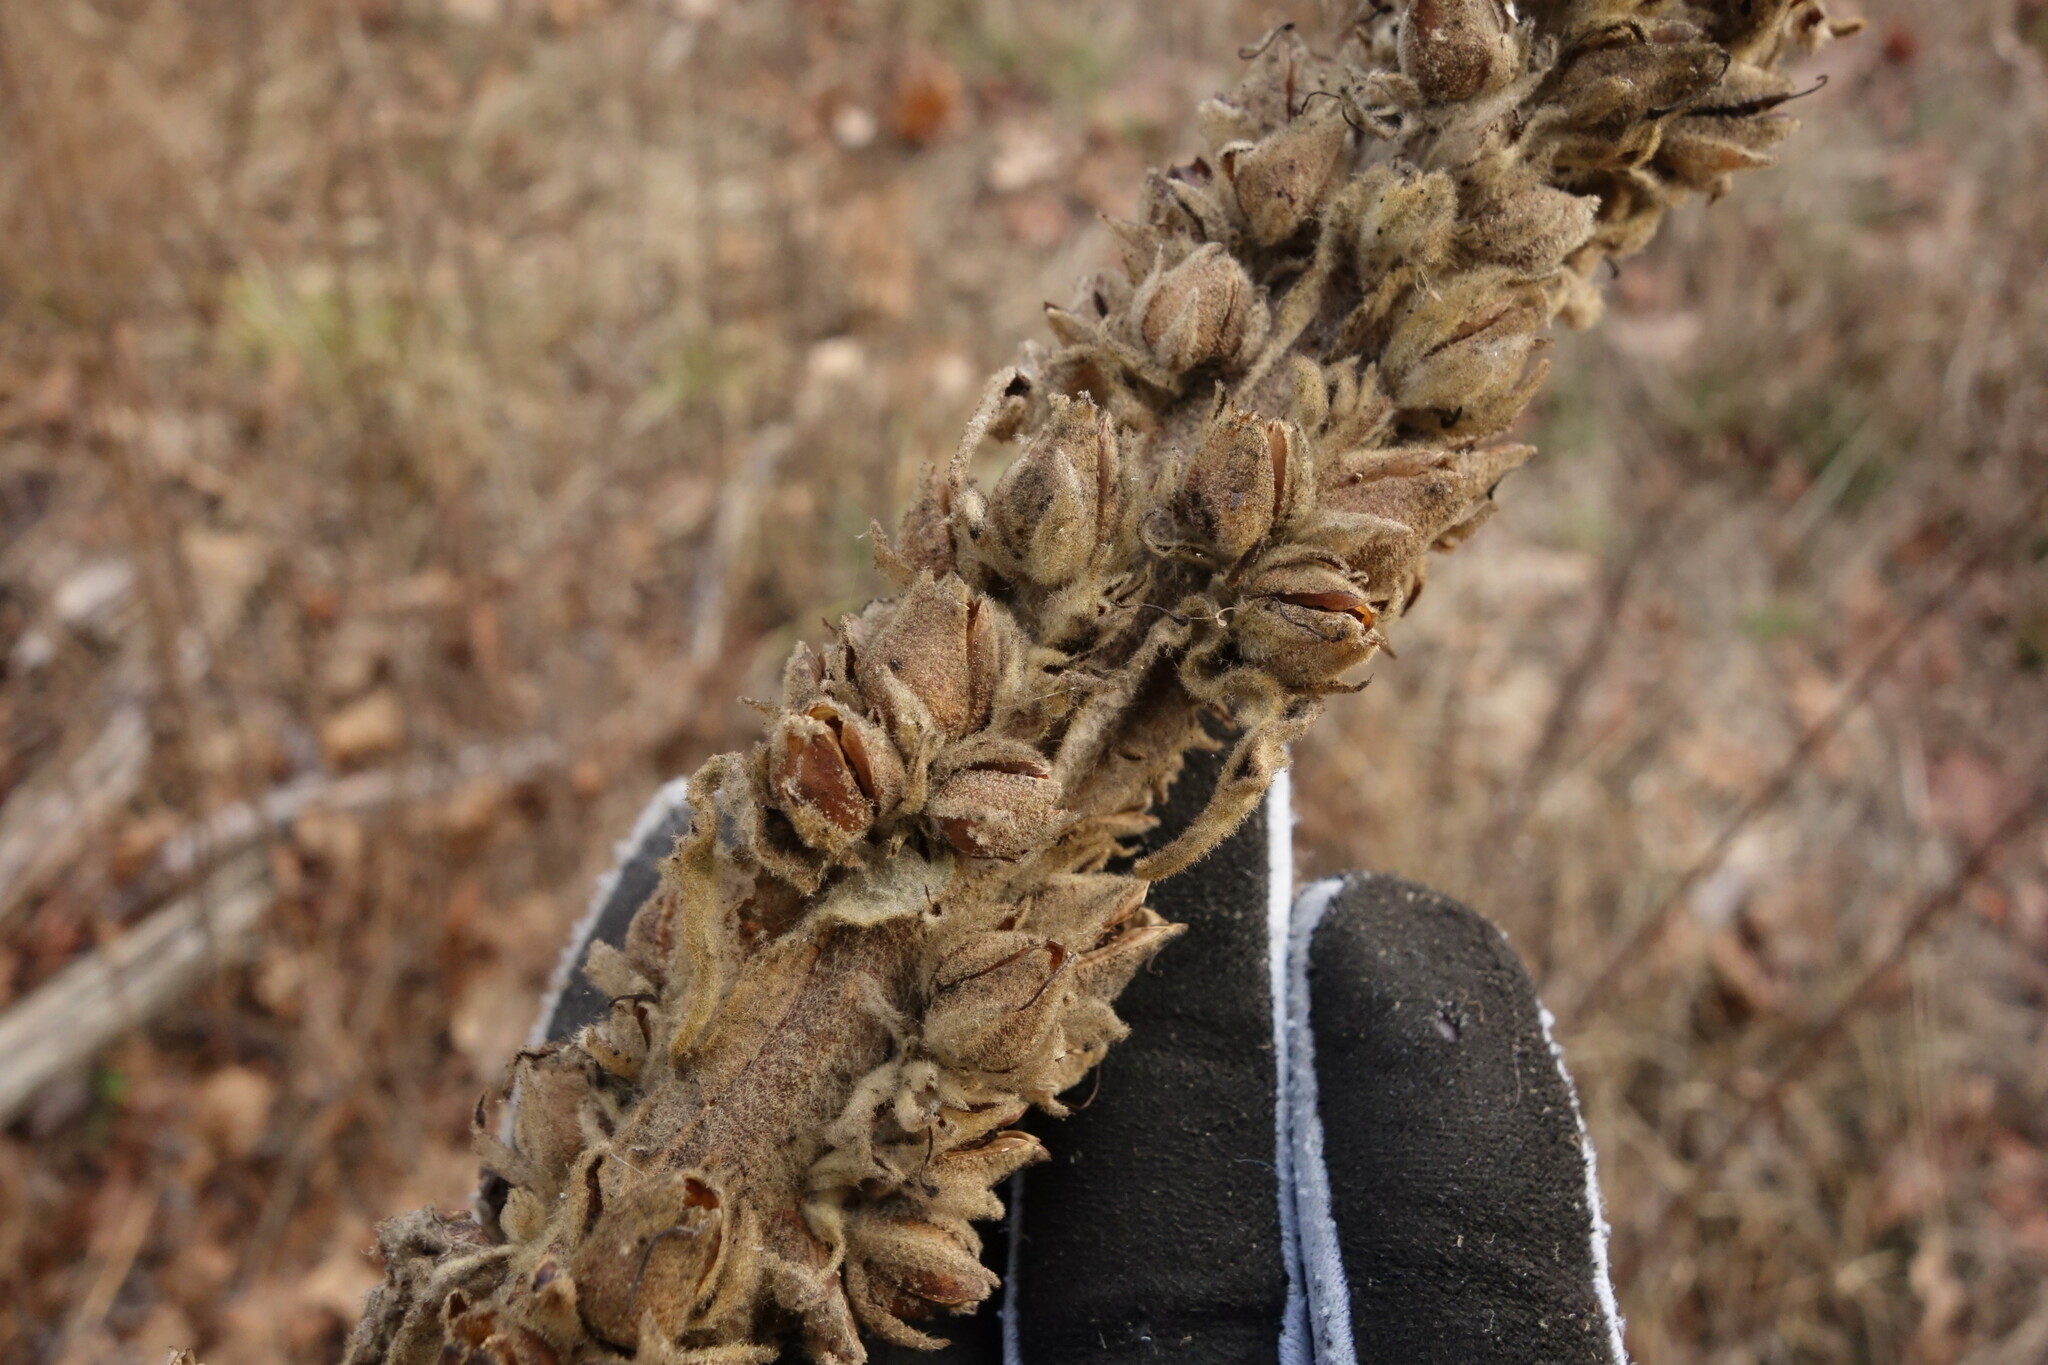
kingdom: Plantae
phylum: Tracheophyta
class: Magnoliopsida
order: Lamiales
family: Scrophulariaceae
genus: Verbascum
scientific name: Verbascum thapsus
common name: Common mullein
